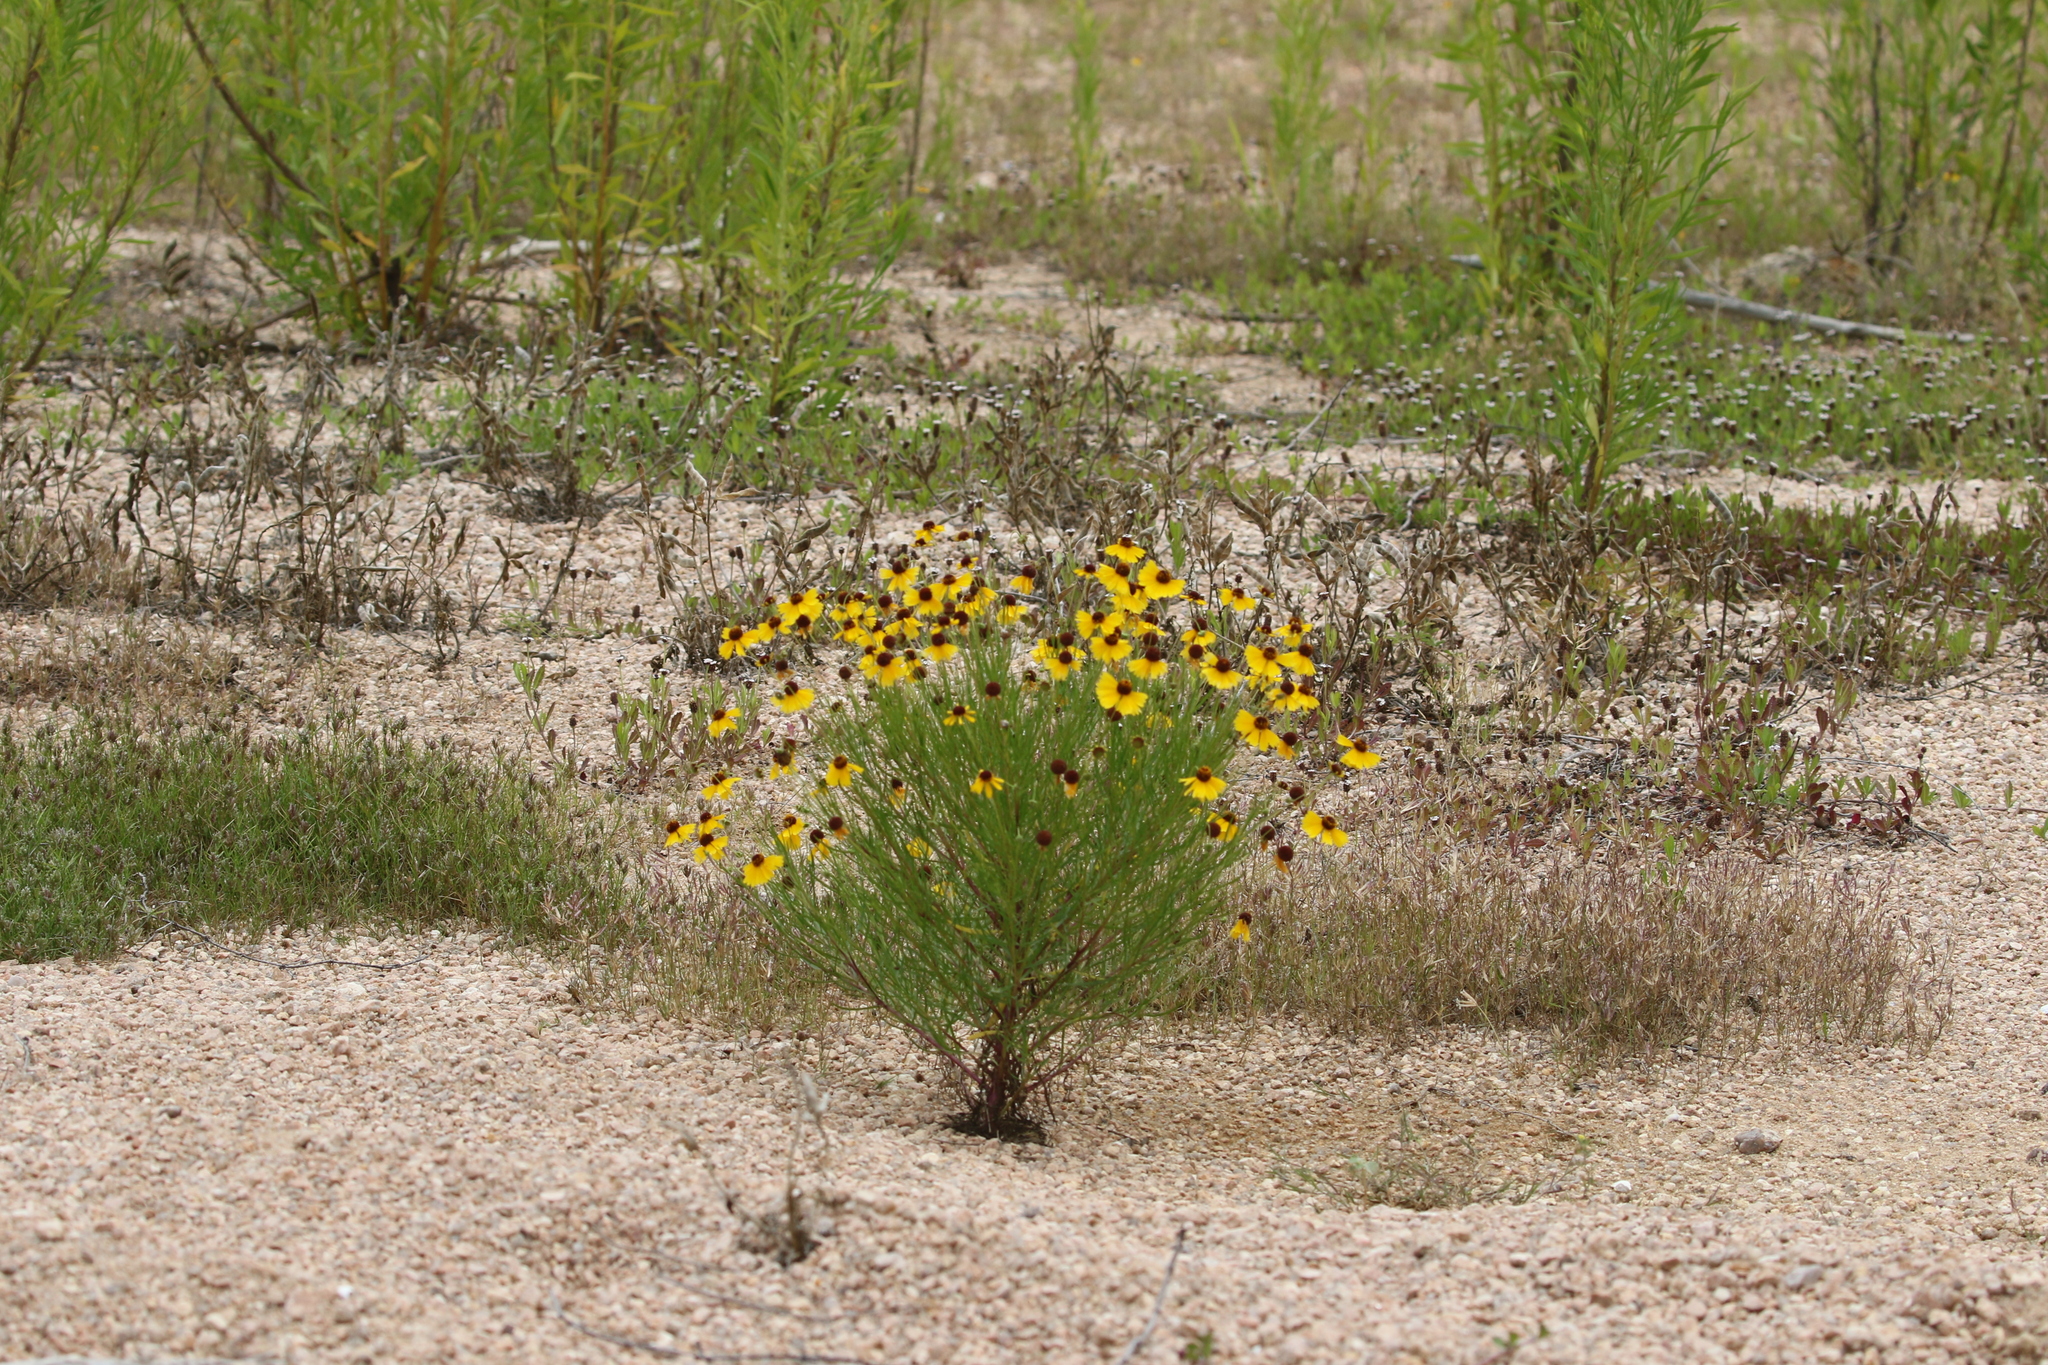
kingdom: Plantae
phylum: Tracheophyta
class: Magnoliopsida
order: Asterales
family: Asteraceae
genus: Helenium
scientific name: Helenium amarum
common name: Bitter sneezeweed
